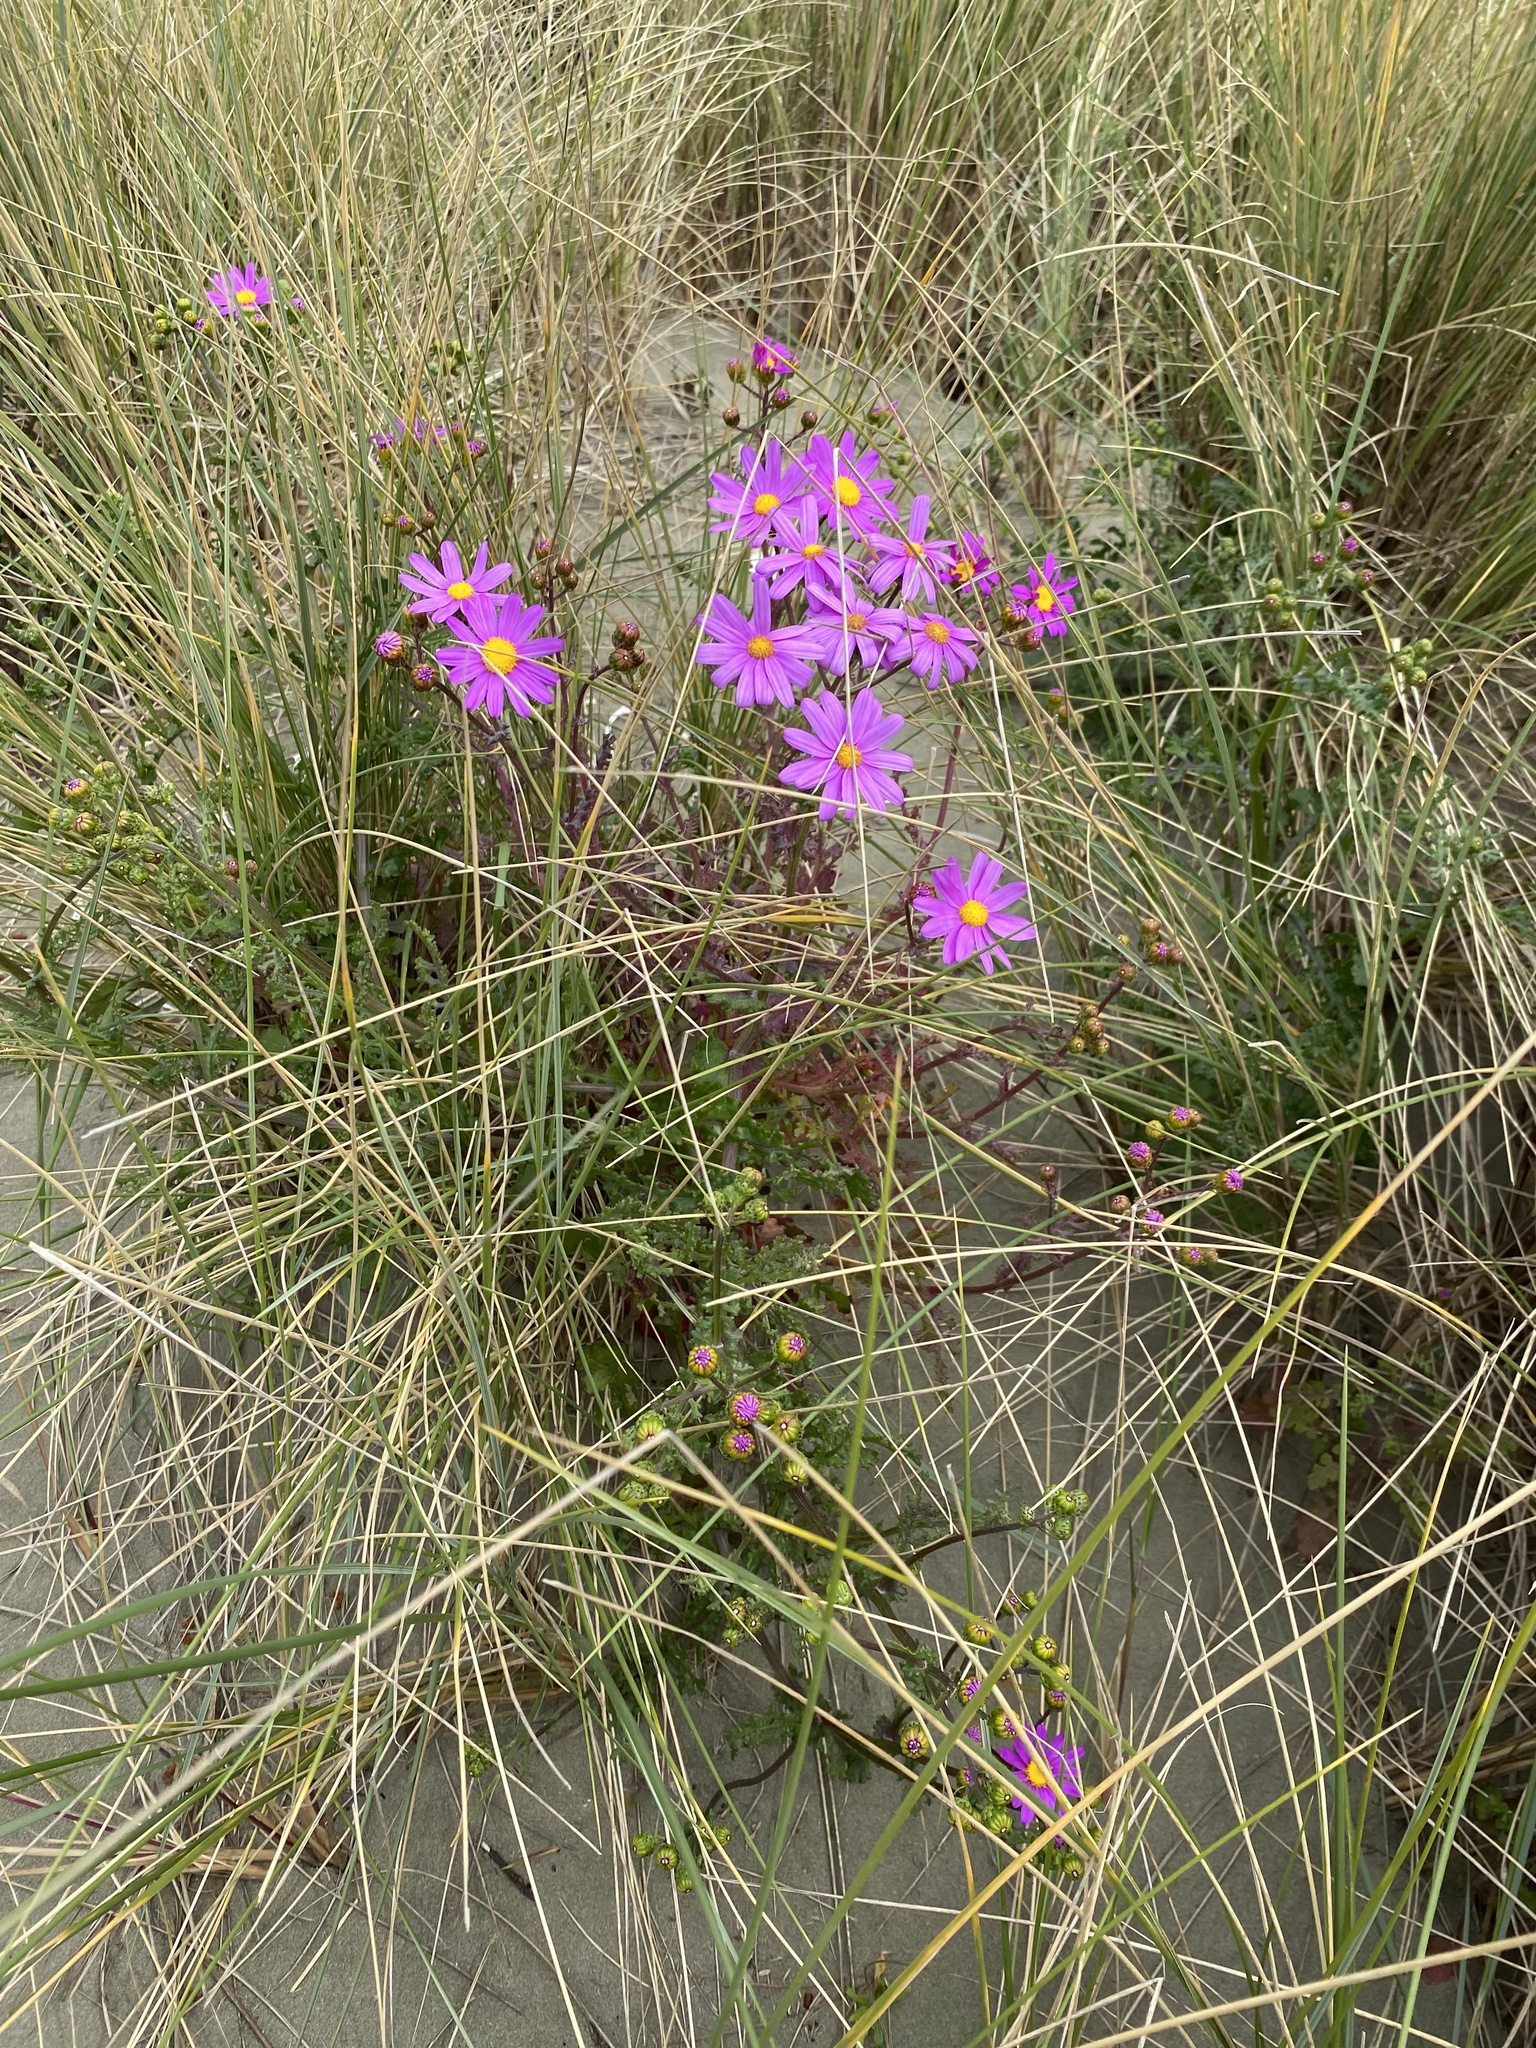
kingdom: Plantae
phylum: Tracheophyta
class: Magnoliopsida
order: Asterales
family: Asteraceae
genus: Senecio
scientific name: Senecio elegans
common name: Purple groundsel
